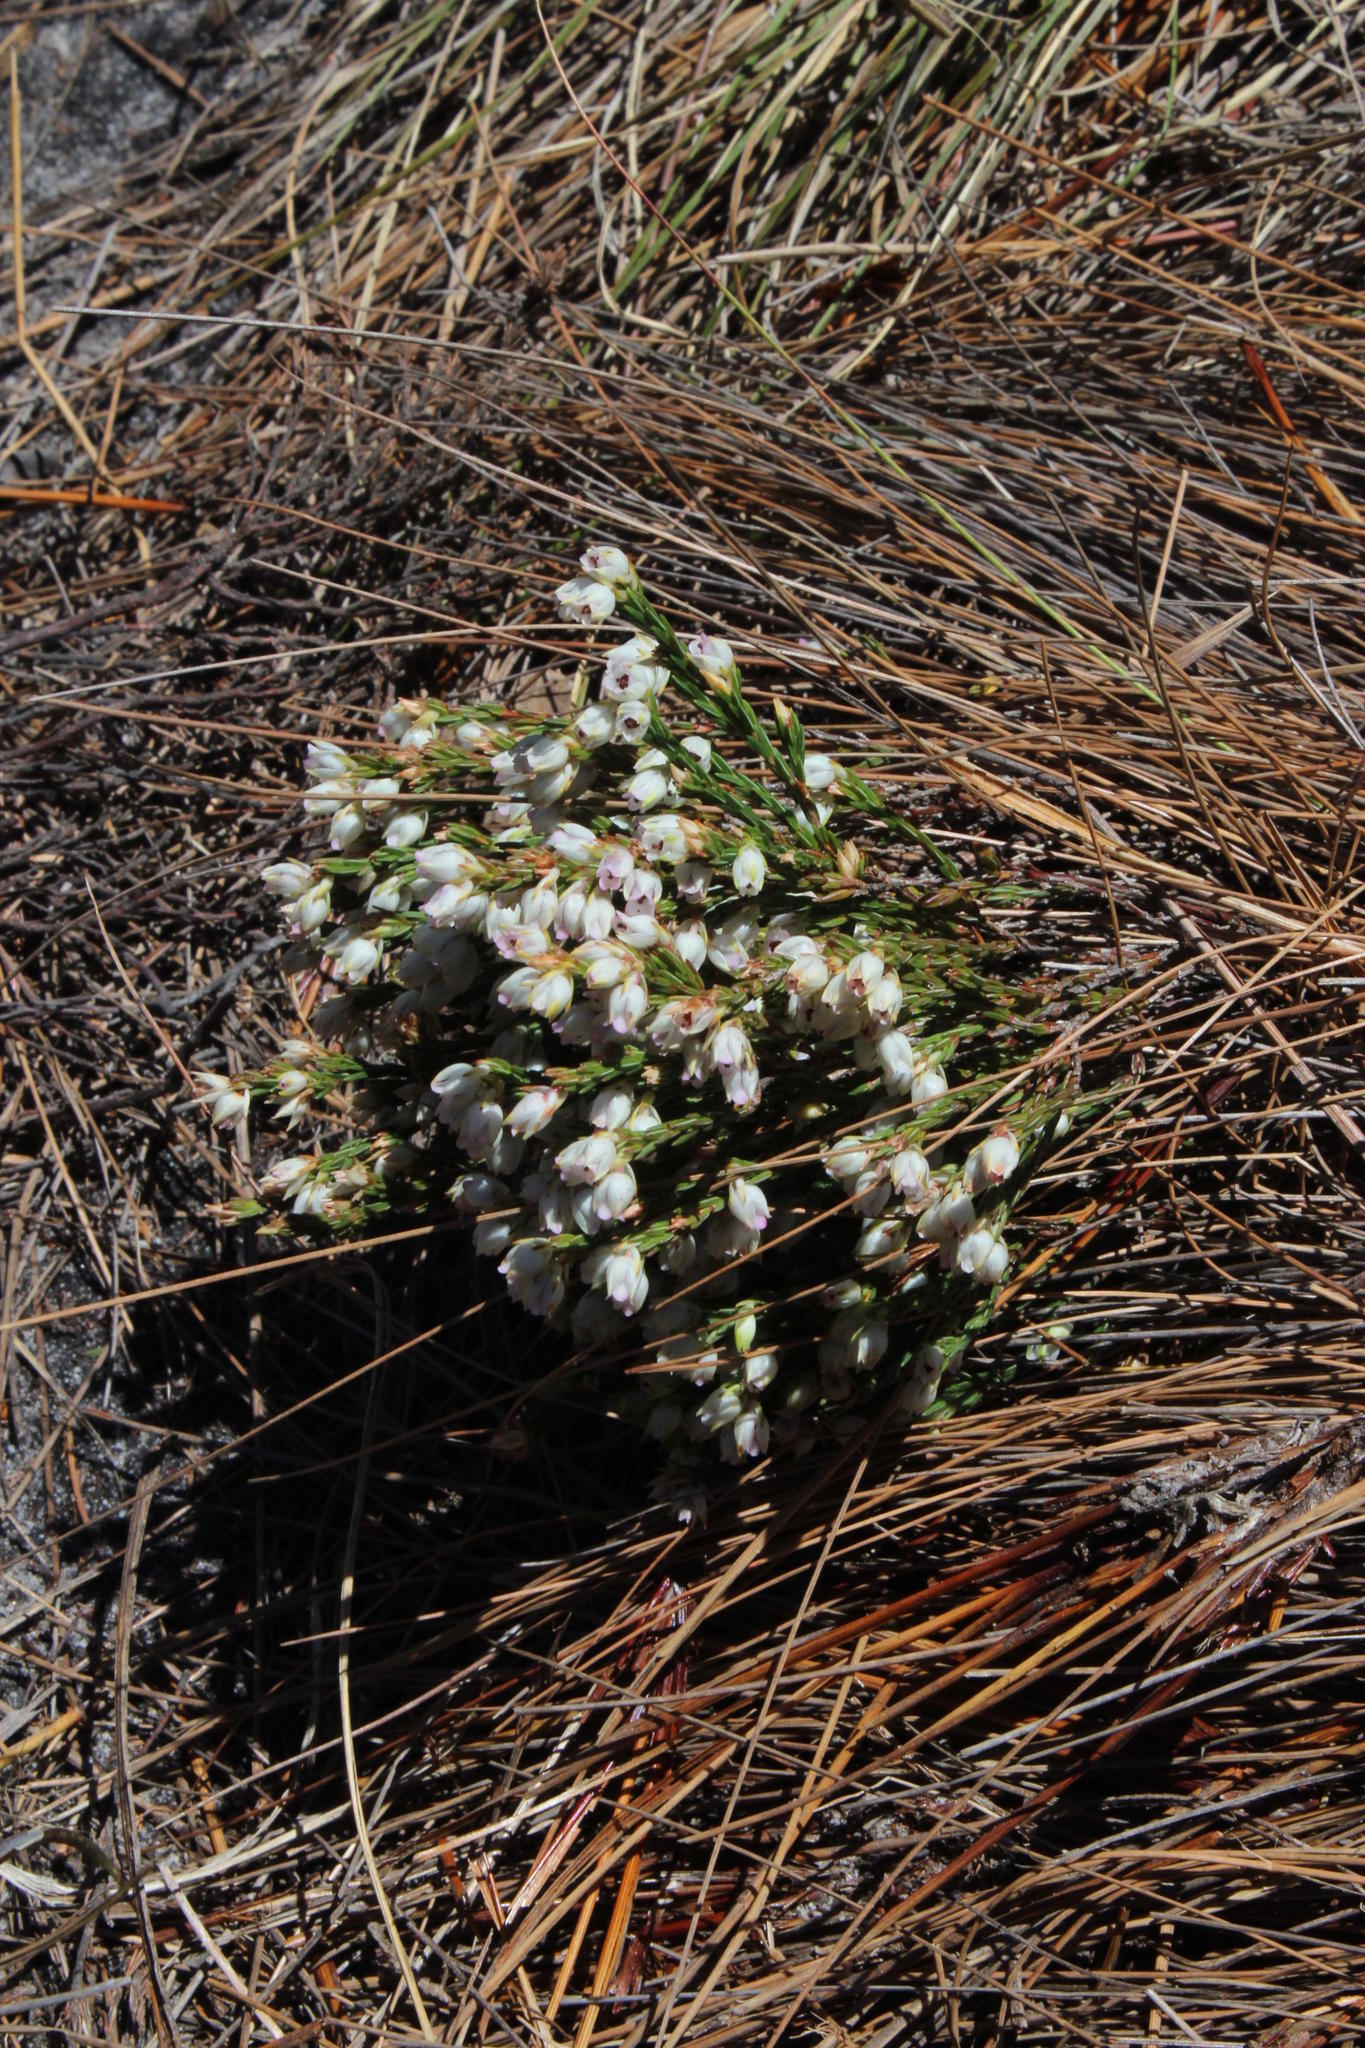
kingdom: Plantae
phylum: Tracheophyta
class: Magnoliopsida
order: Ericales
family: Ericaceae
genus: Erica
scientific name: Erica palliiflora
